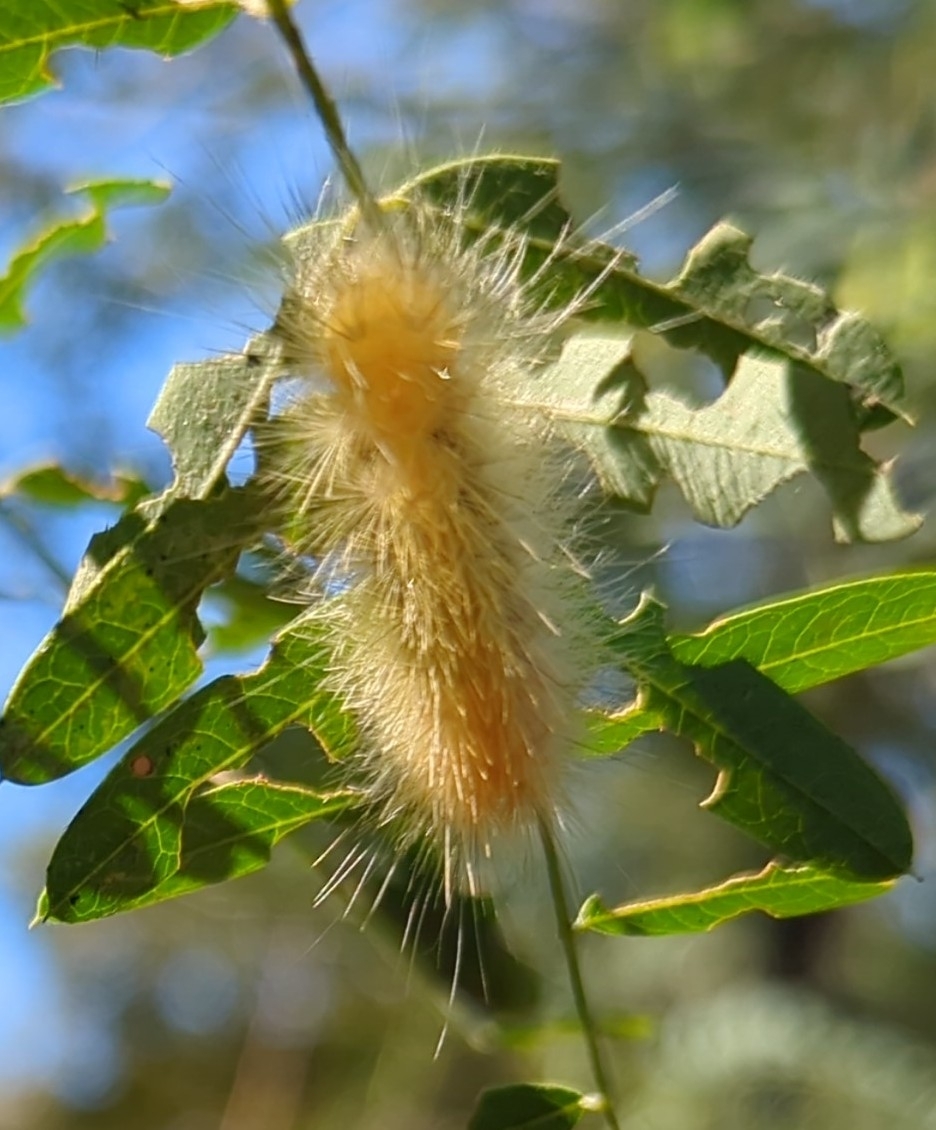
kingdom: Animalia
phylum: Arthropoda
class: Insecta
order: Lepidoptera
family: Erebidae
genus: Spilosoma
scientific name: Spilosoma virginica
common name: Virginia tiger moth
